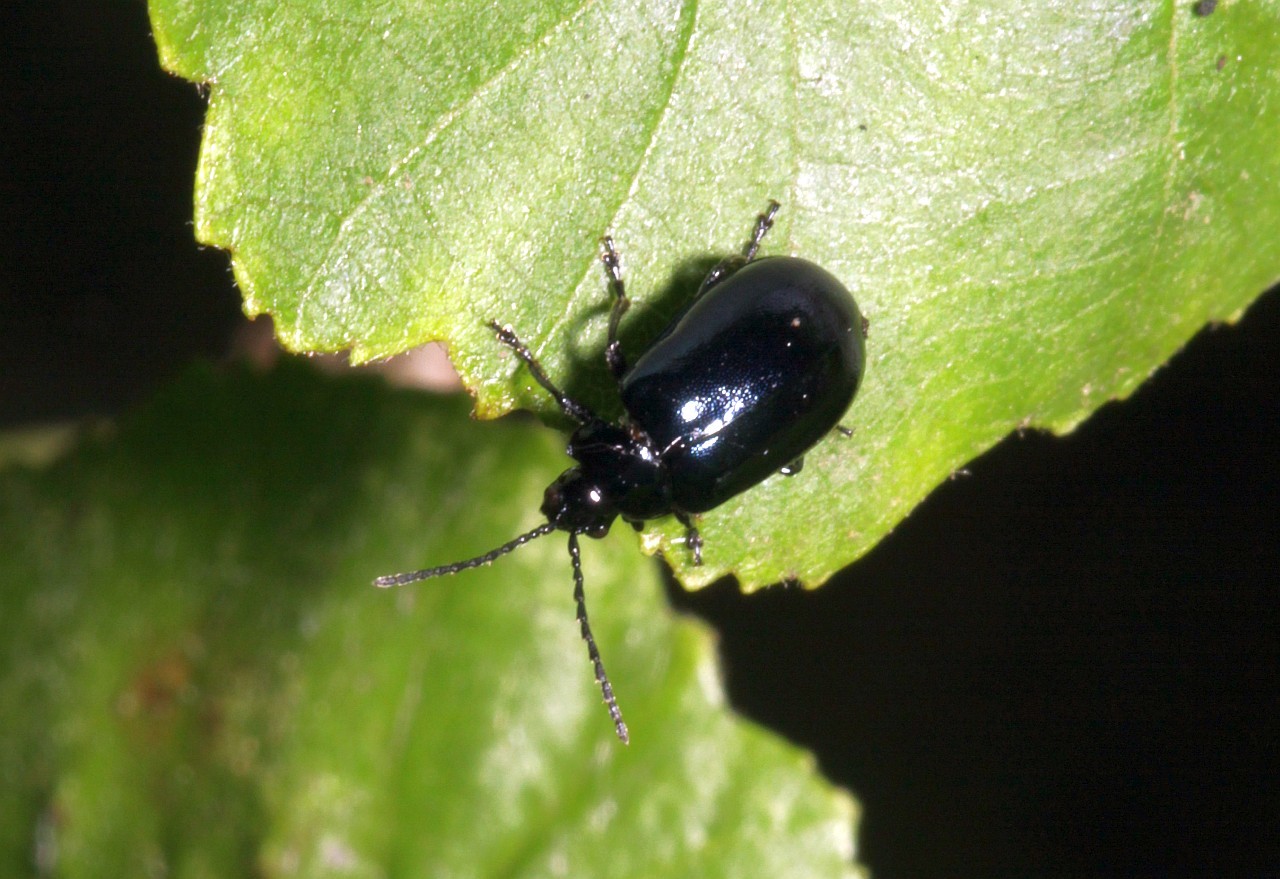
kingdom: Animalia
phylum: Arthropoda
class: Insecta
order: Coleoptera
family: Chrysomelidae
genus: Agelastica
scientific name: Agelastica alni
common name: Alder leaf beetle
